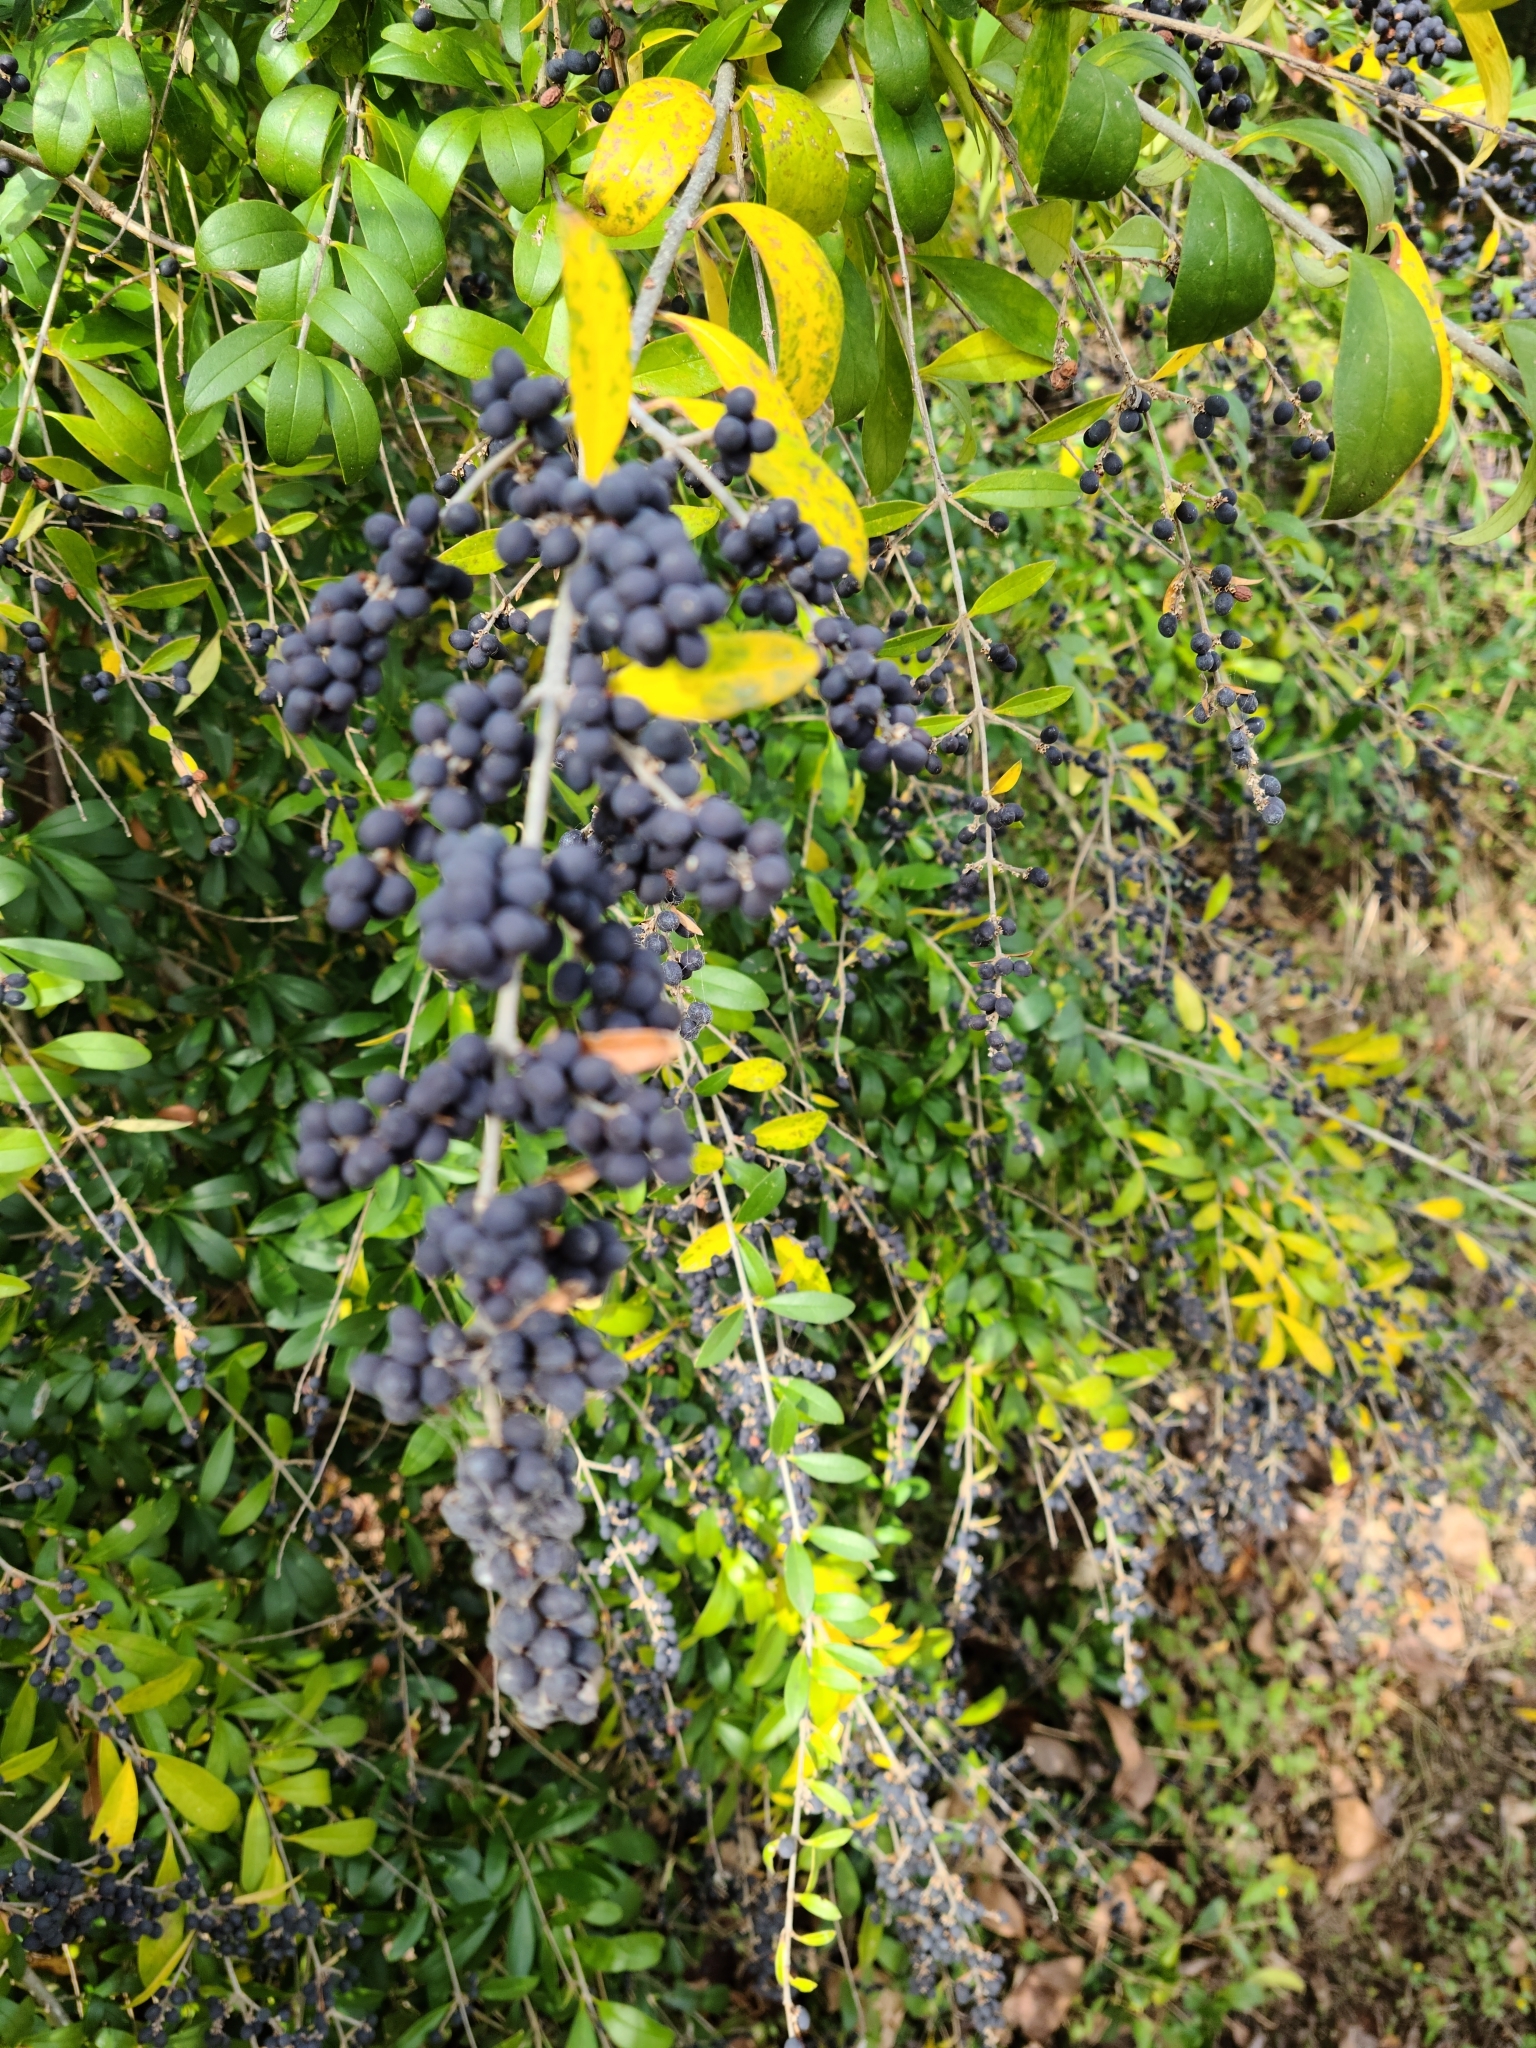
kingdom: Plantae
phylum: Tracheophyta
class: Magnoliopsida
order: Lamiales
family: Oleaceae
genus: Ligustrum
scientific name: Ligustrum quihoui
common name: Waxyleaf privet
